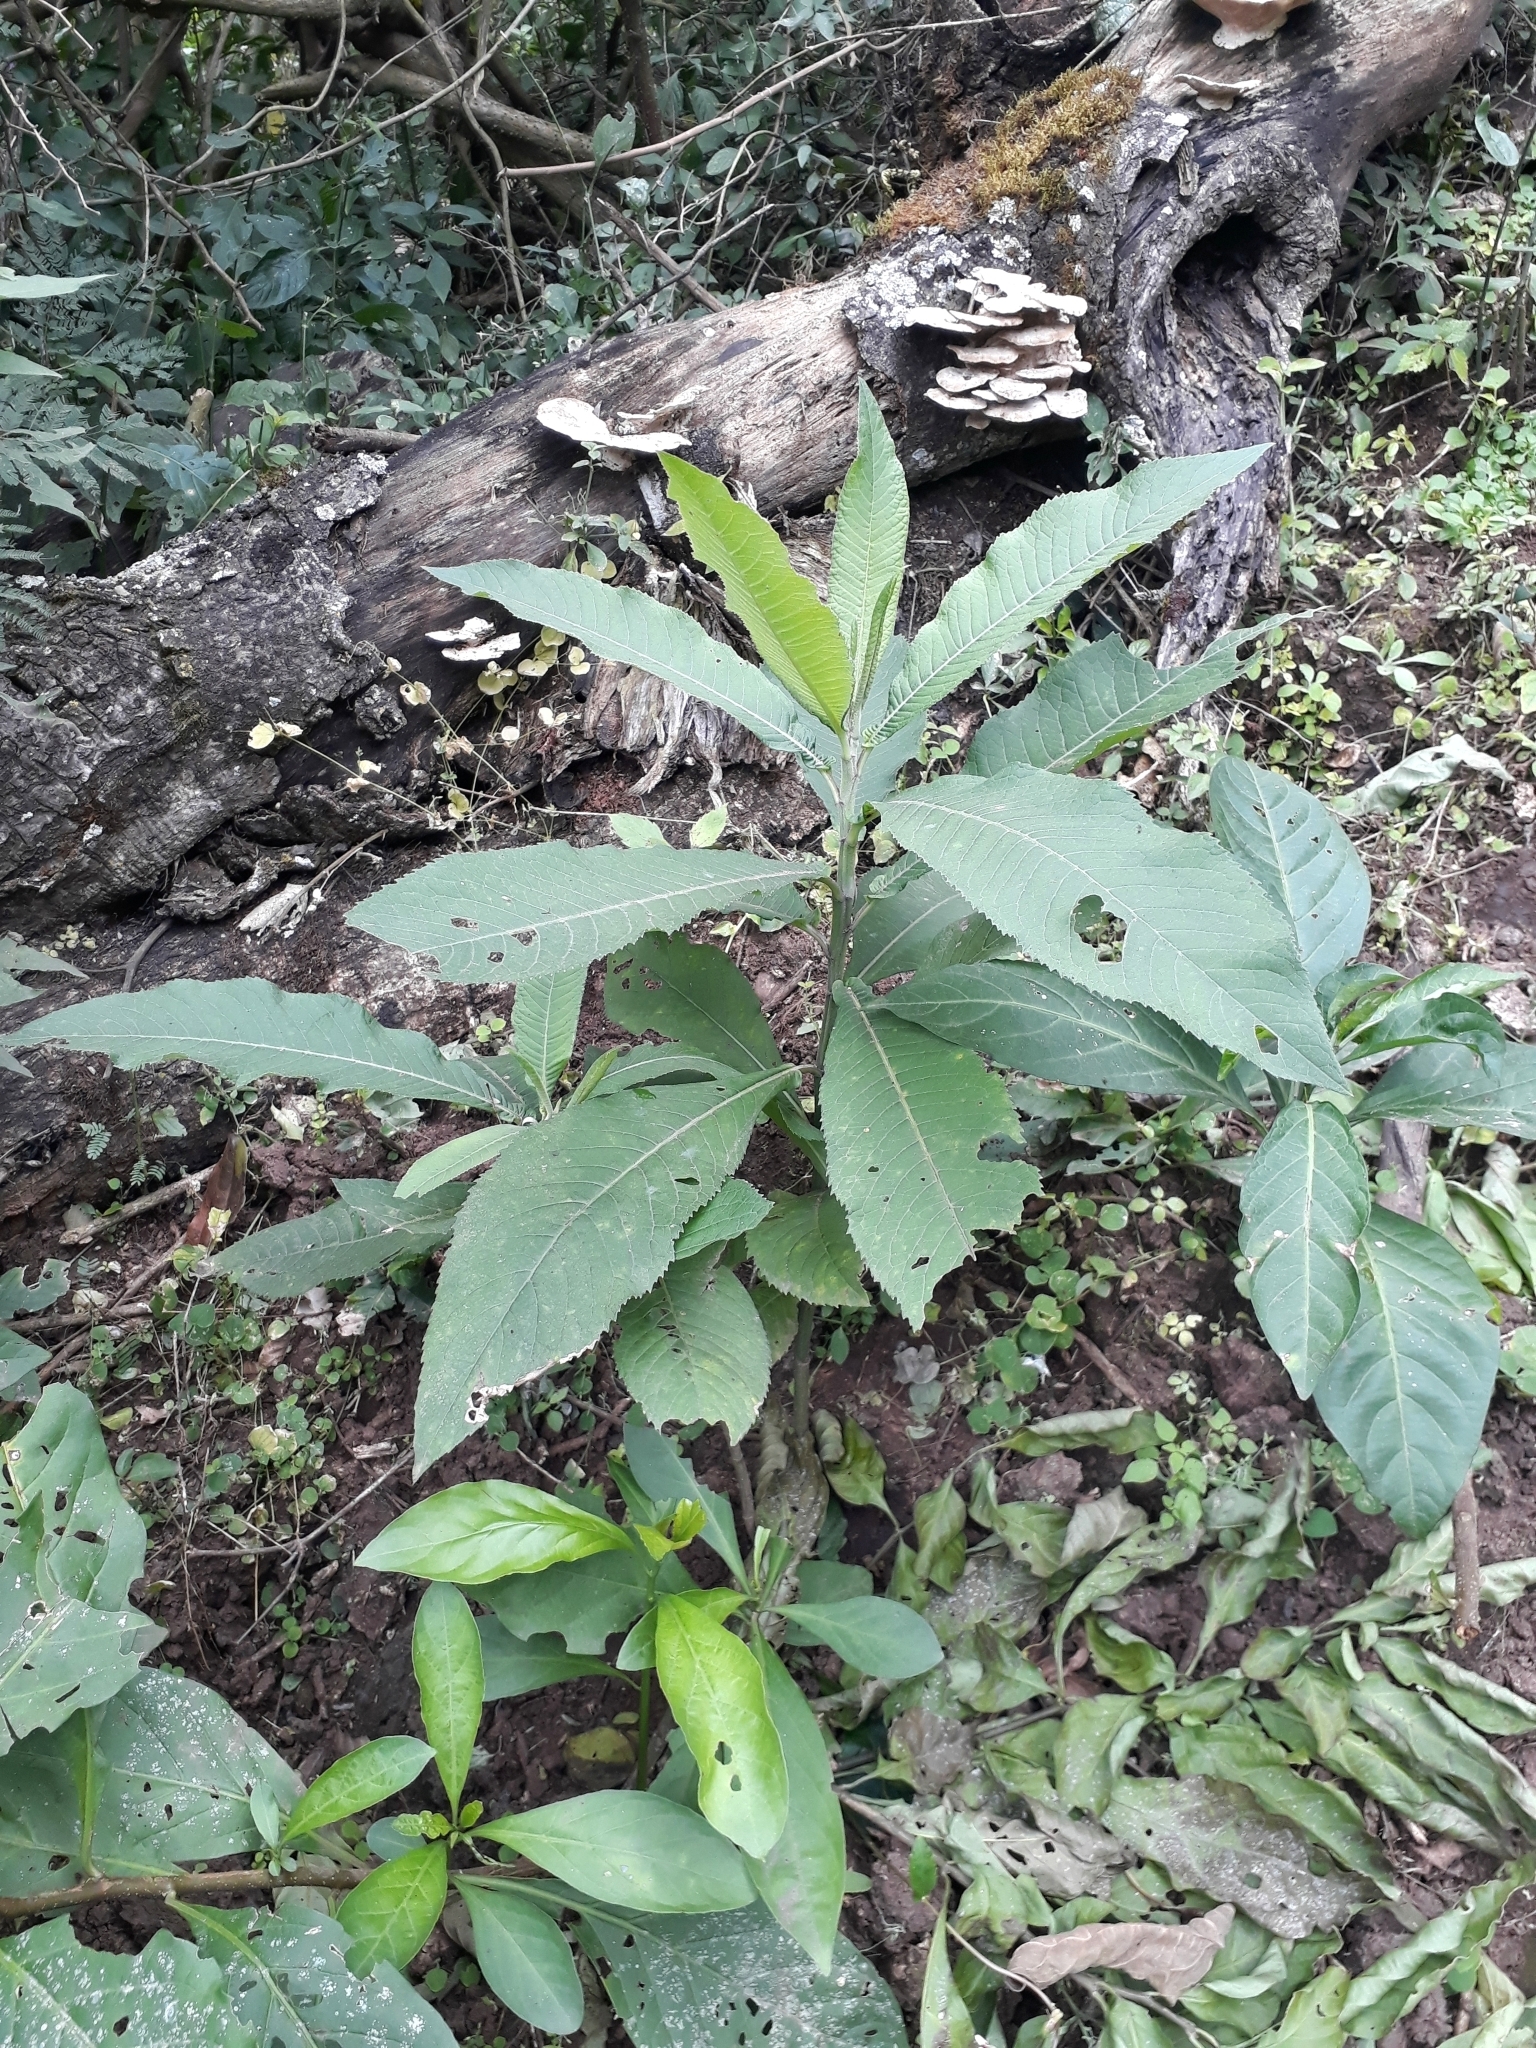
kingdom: Plantae
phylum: Tracheophyta
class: Magnoliopsida
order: Asterales
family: Asteraceae
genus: Vernonanthura
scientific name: Vernonanthura pinguis
